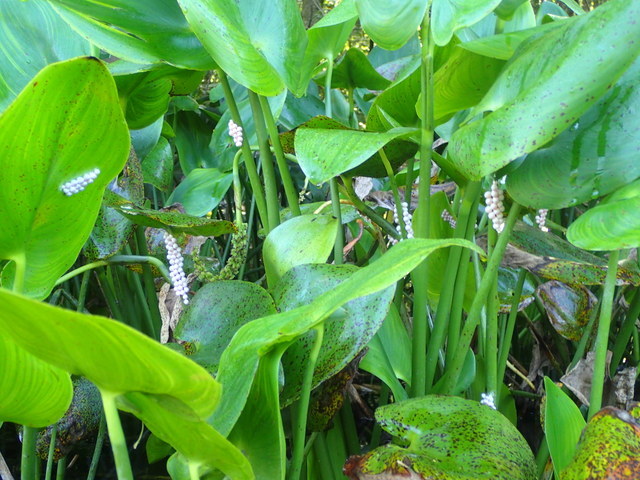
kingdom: Animalia
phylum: Mollusca
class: Gastropoda
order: Architaenioglossa
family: Ampullariidae
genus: Pomacea
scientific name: Pomacea paludosa
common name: Florida applesnail
